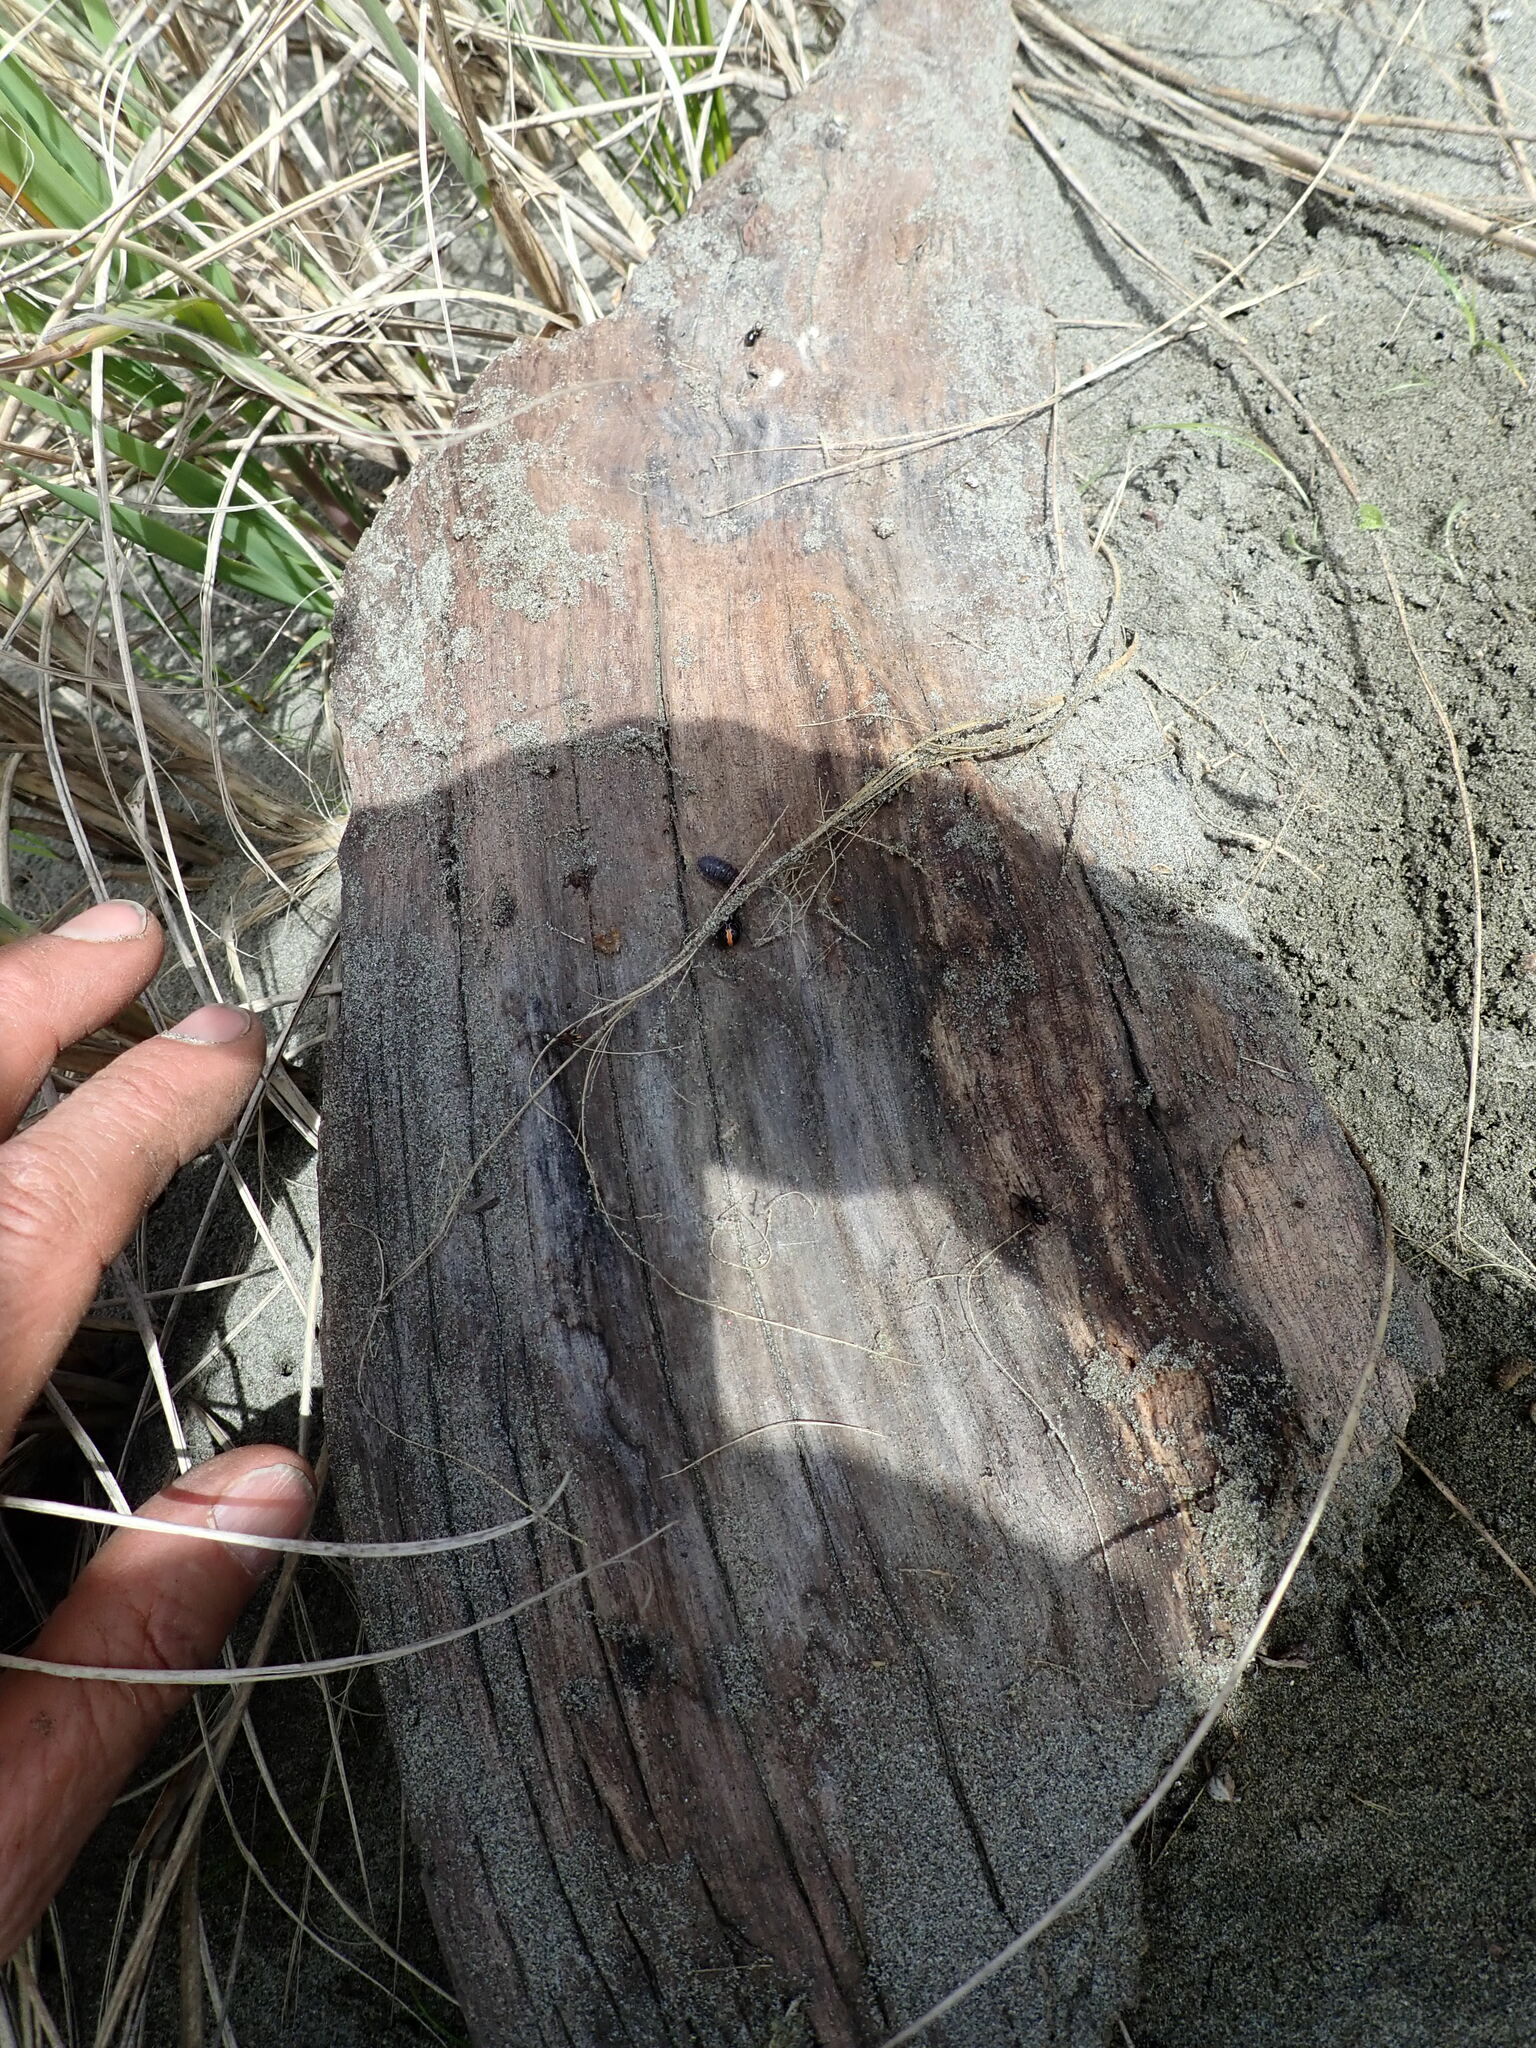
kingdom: Animalia
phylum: Arthropoda
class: Arachnida
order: Araneae
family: Theridiidae
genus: Steatoda
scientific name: Steatoda lepida
